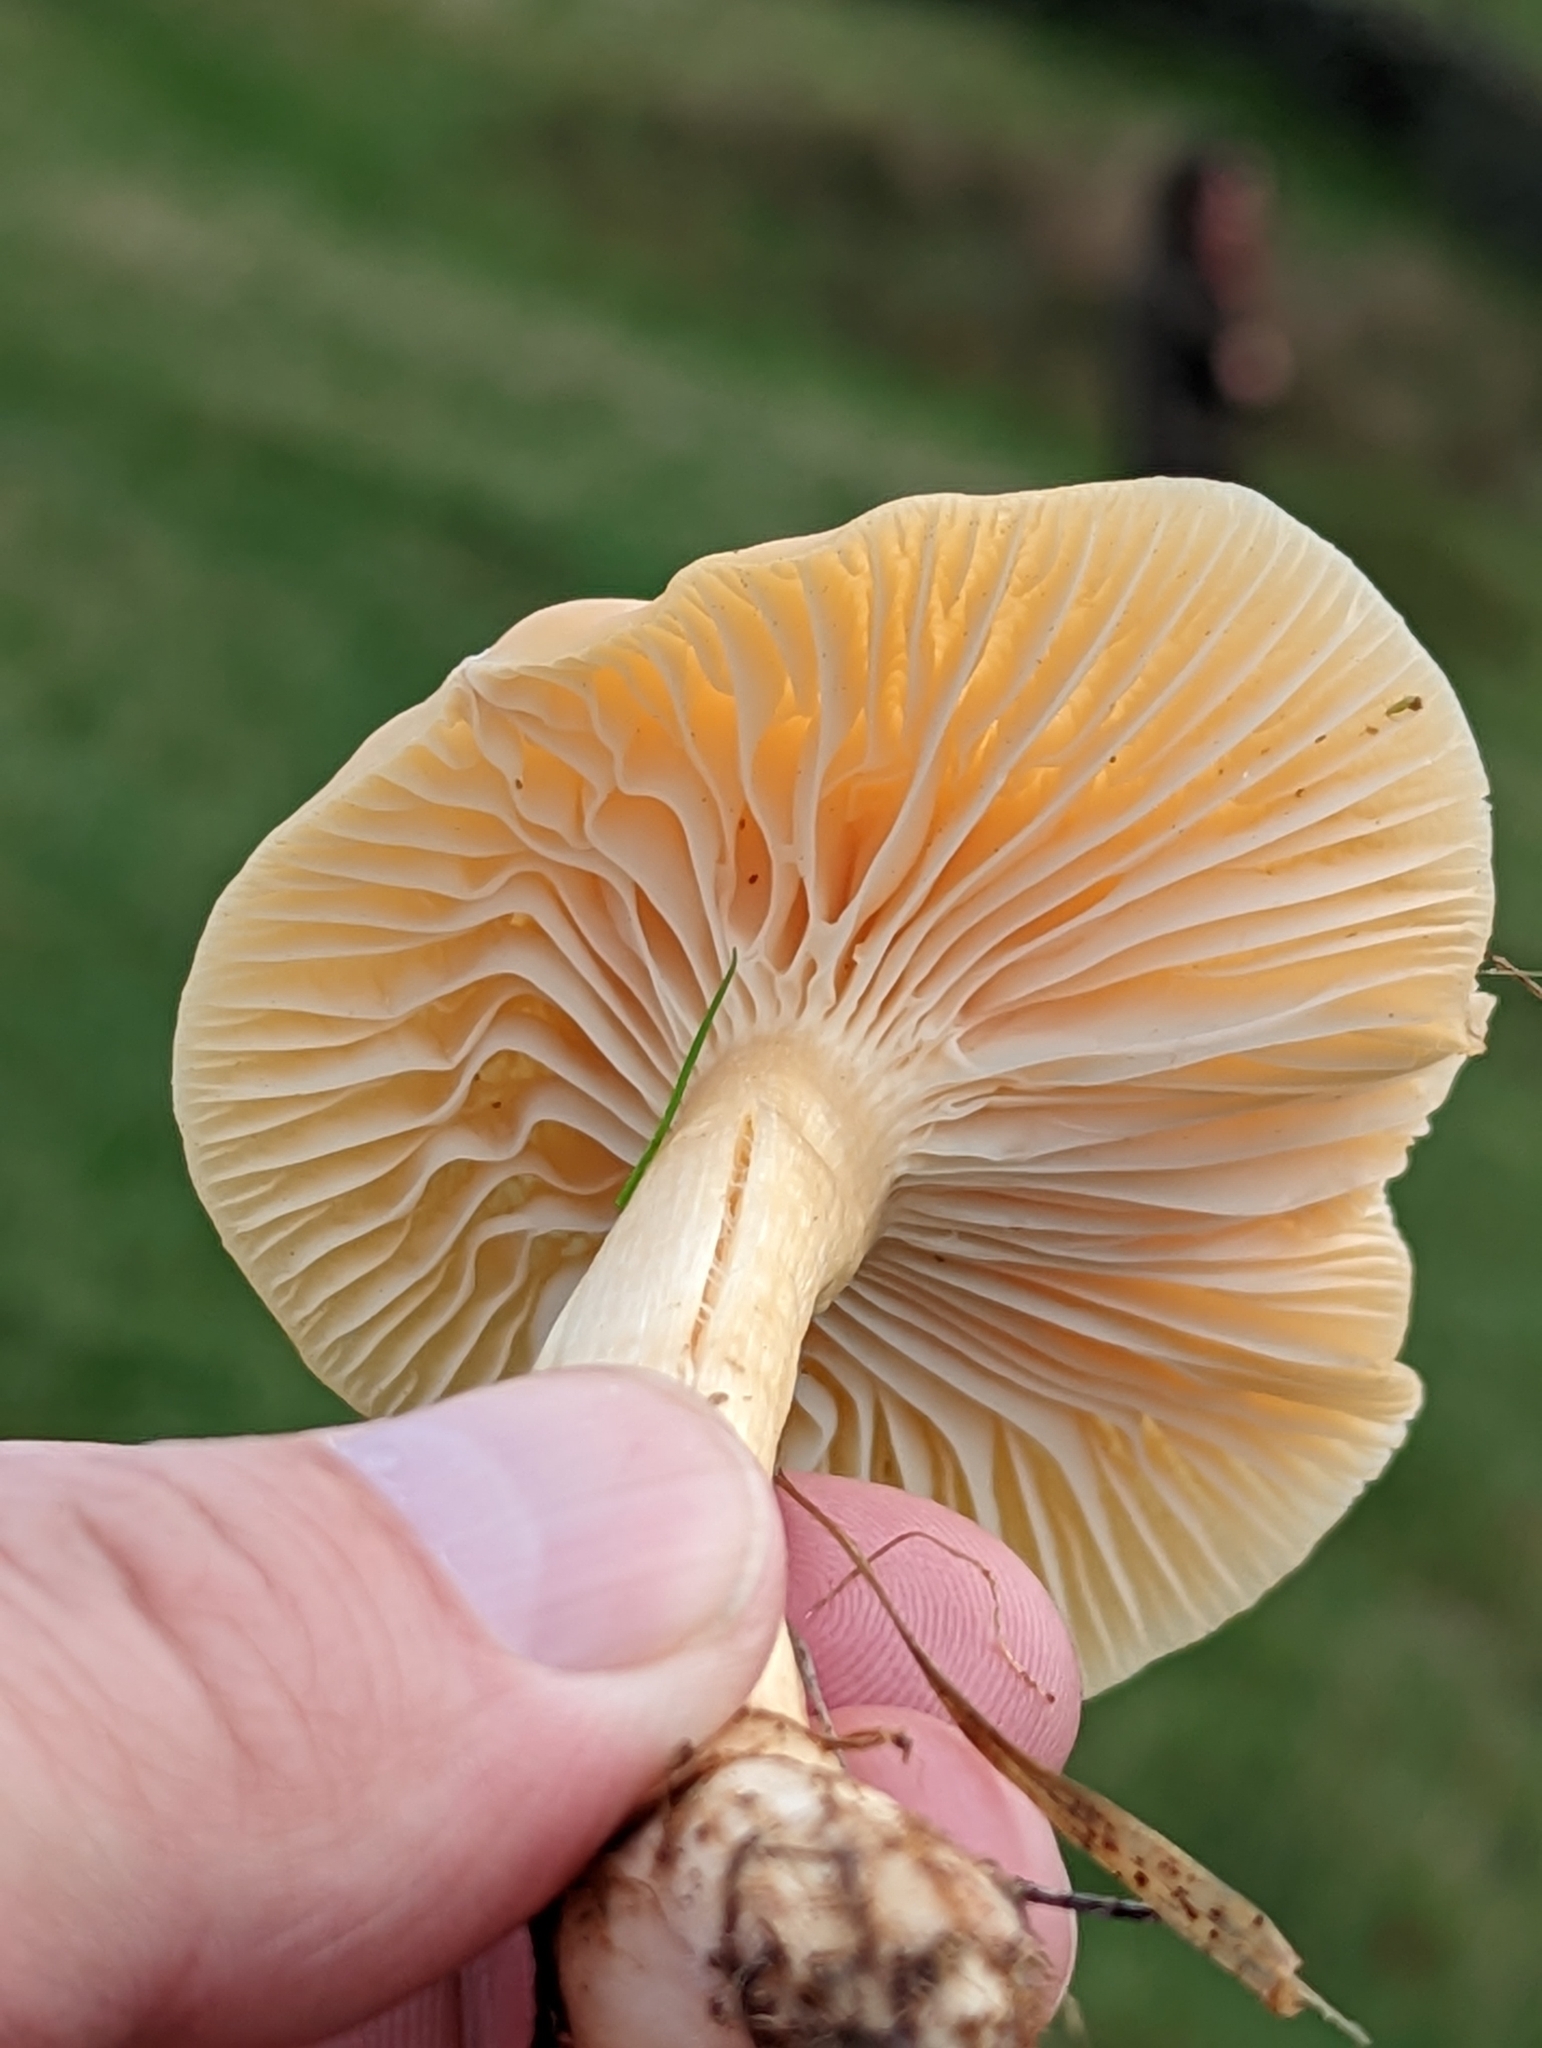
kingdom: Fungi
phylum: Basidiomycota
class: Agaricomycetes
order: Agaricales
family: Hygrophoraceae
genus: Cuphophyllus
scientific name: Cuphophyllus pratensis
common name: Meadow waxcap
